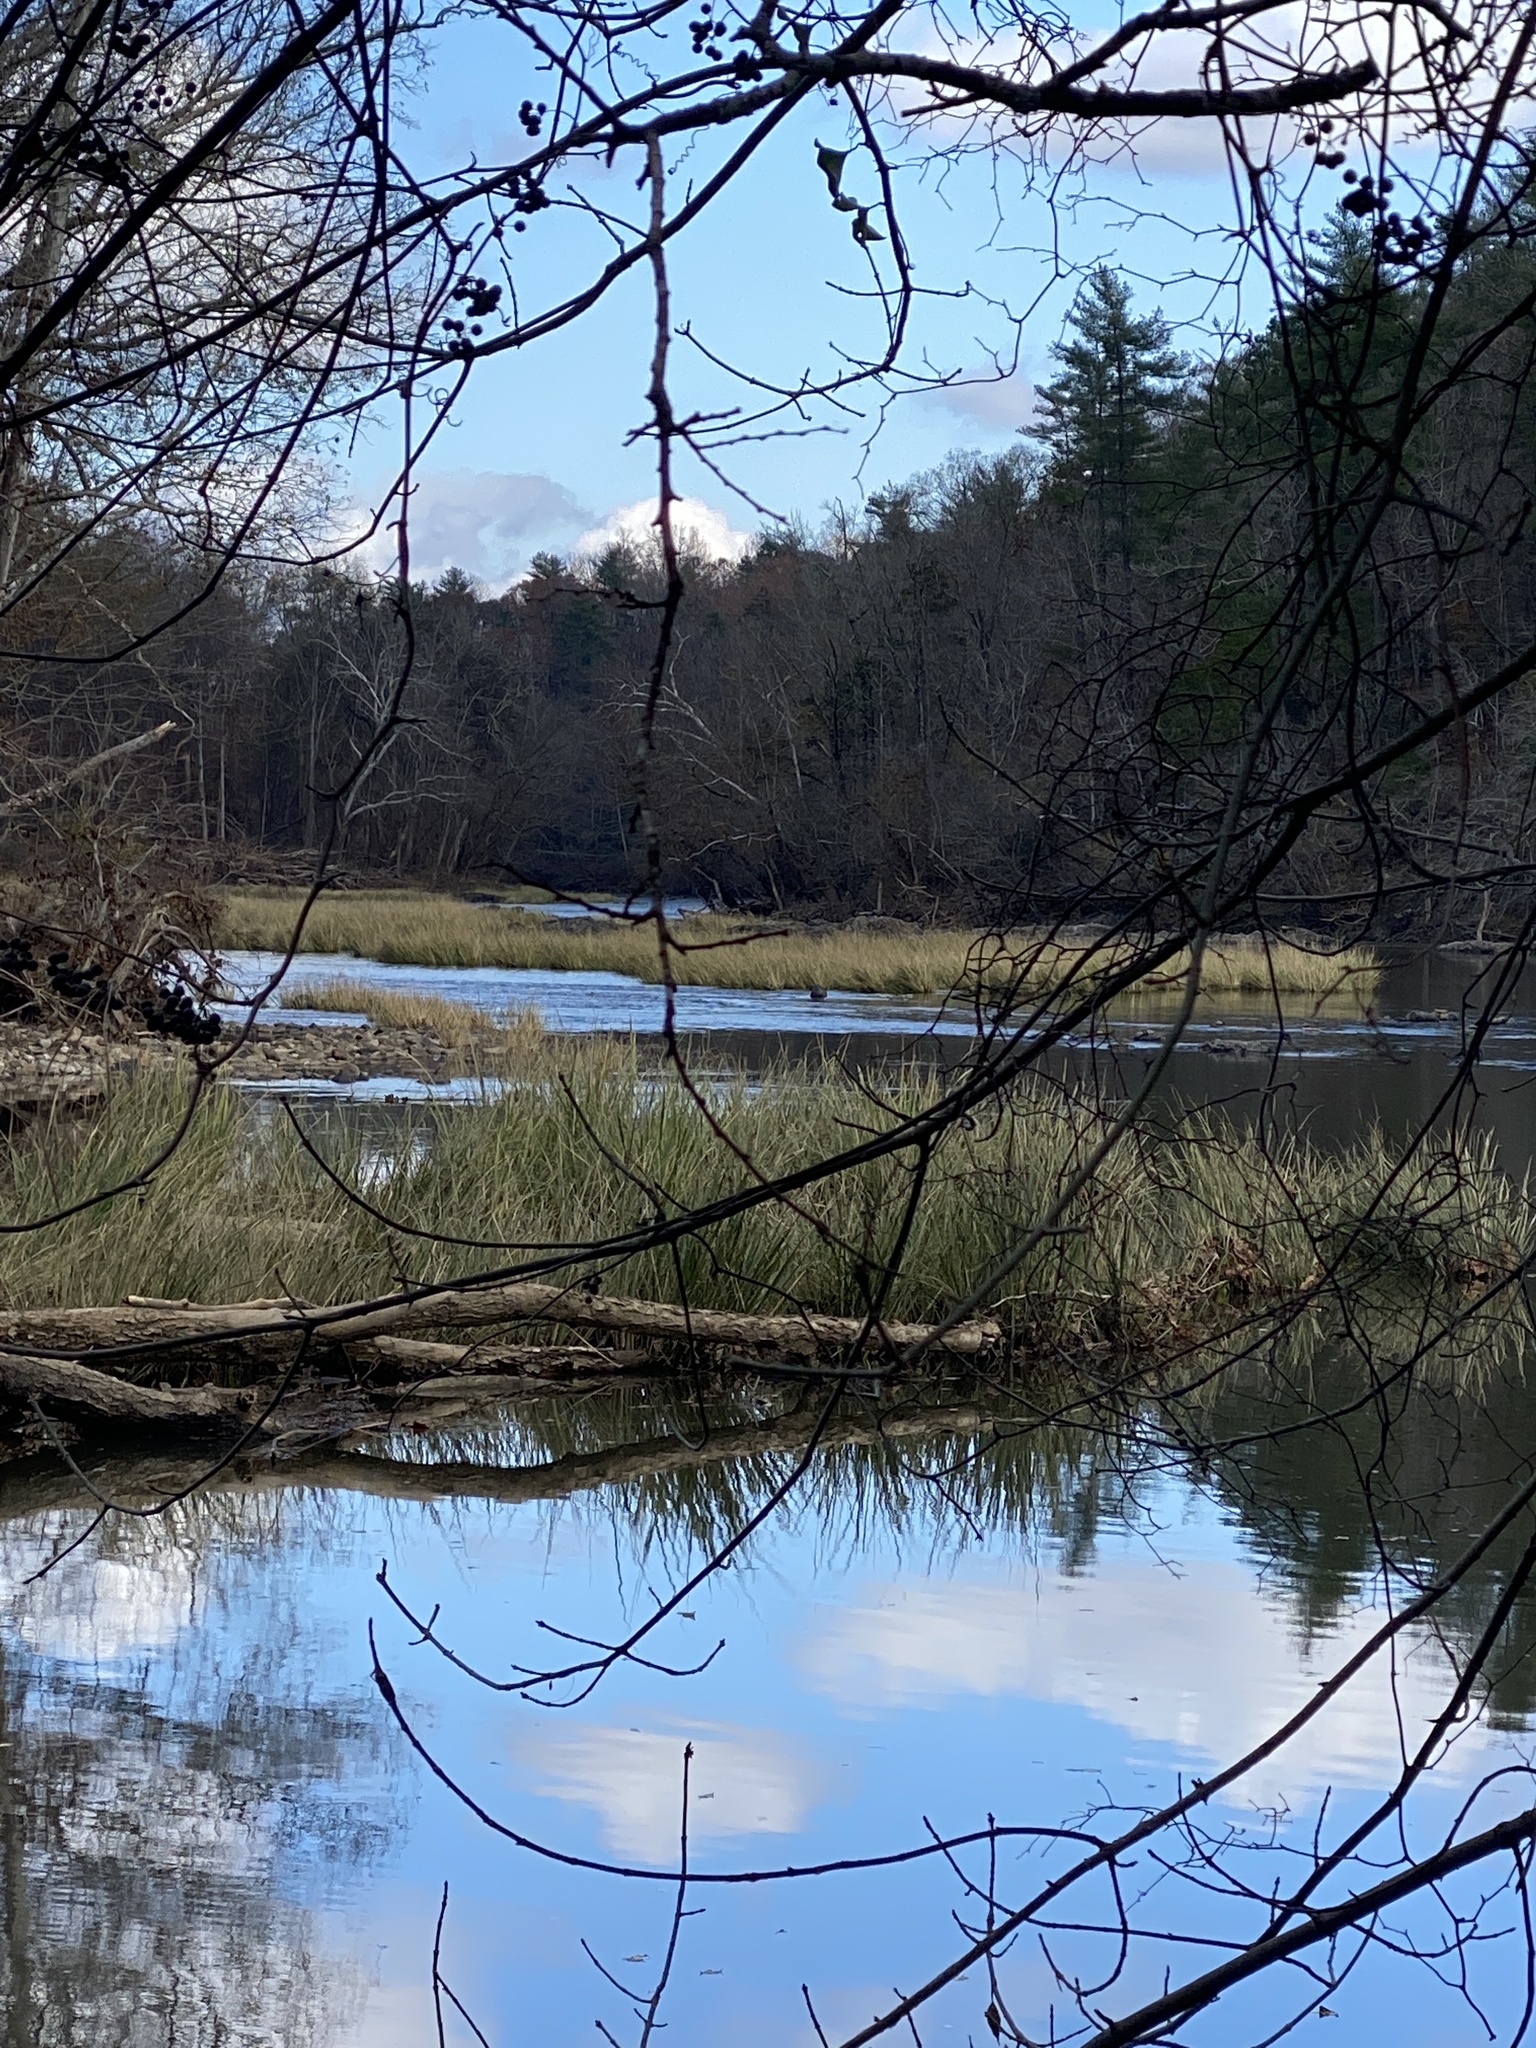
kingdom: Plantae
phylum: Tracheophyta
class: Liliopsida
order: Poales
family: Poaceae
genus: Zizaniopsis
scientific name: Zizaniopsis miliacea
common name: Giant-cutgrass
